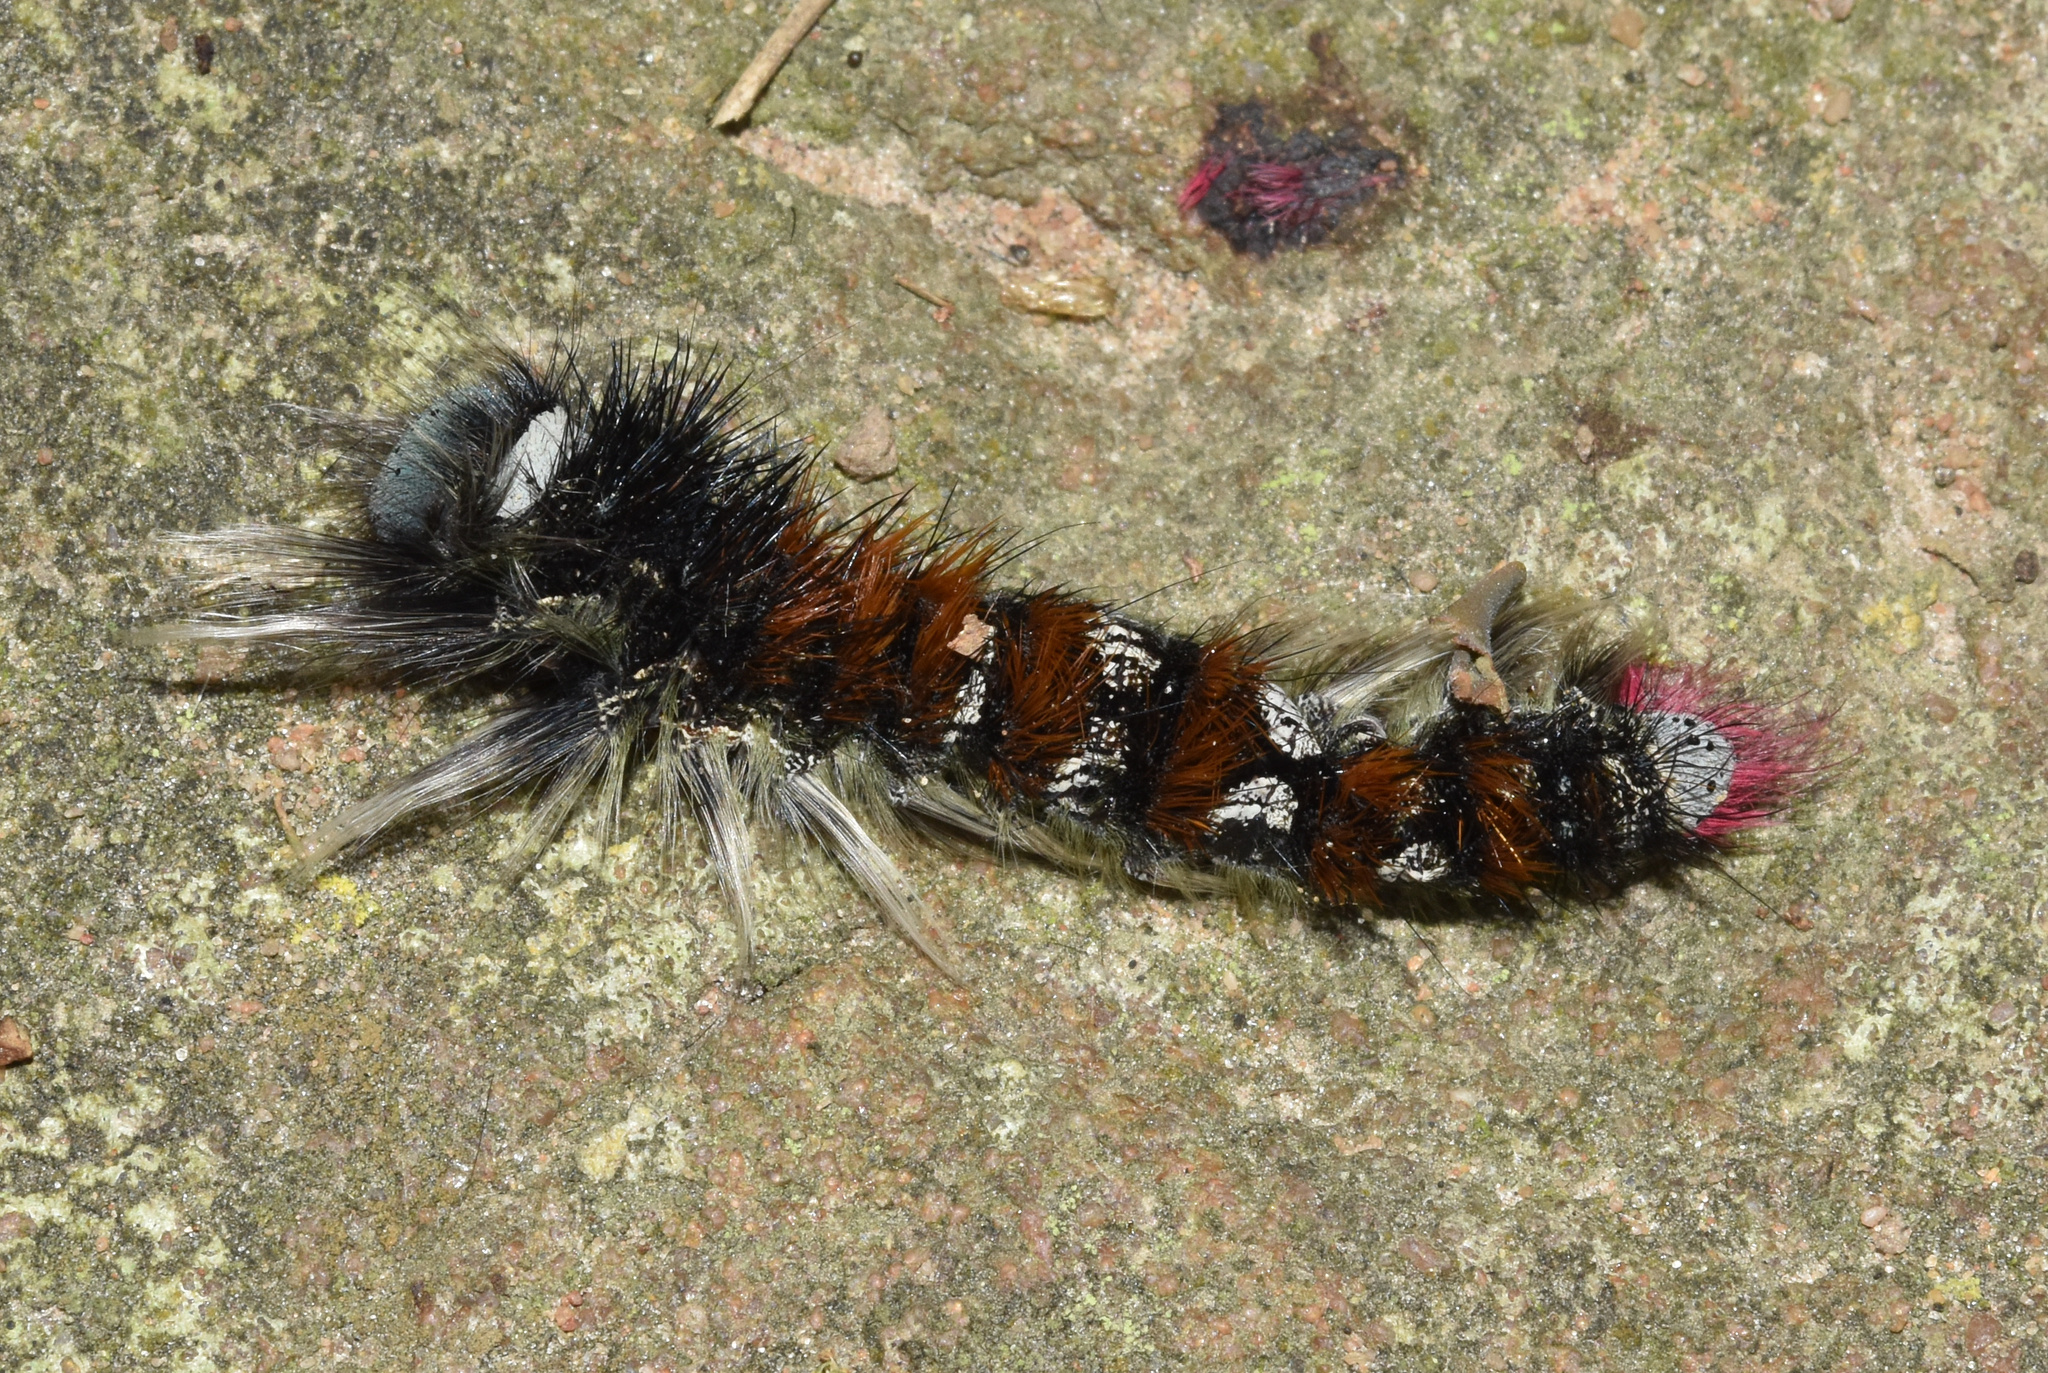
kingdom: Animalia
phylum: Arthropoda
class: Insecta
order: Lepidoptera
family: Lasiocampidae
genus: Catalebeda
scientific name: Catalebeda cuneilinea
